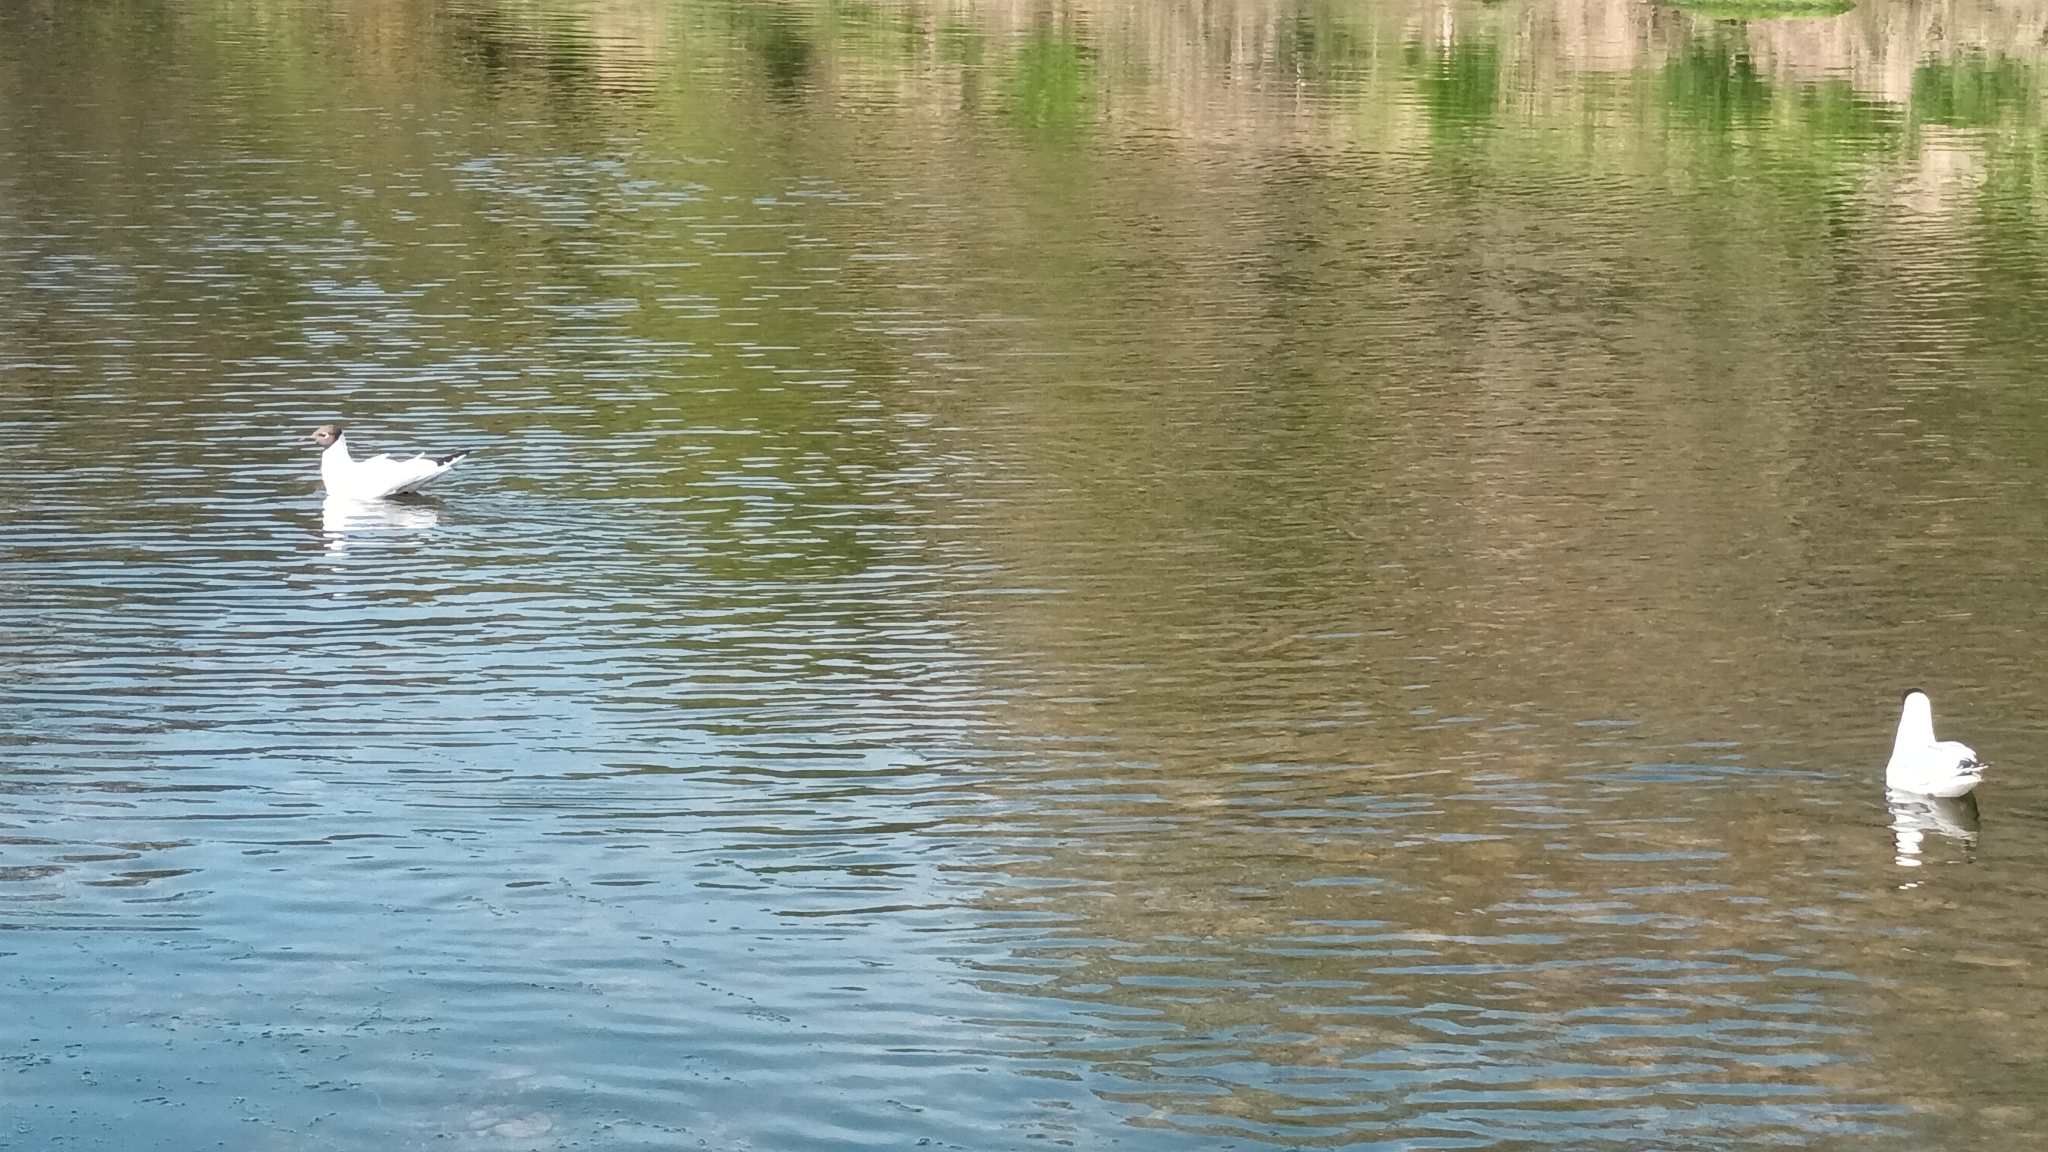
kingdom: Animalia
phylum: Chordata
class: Aves
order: Charadriiformes
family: Laridae
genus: Chroicocephalus
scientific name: Chroicocephalus ridibundus
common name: Black-headed gull
